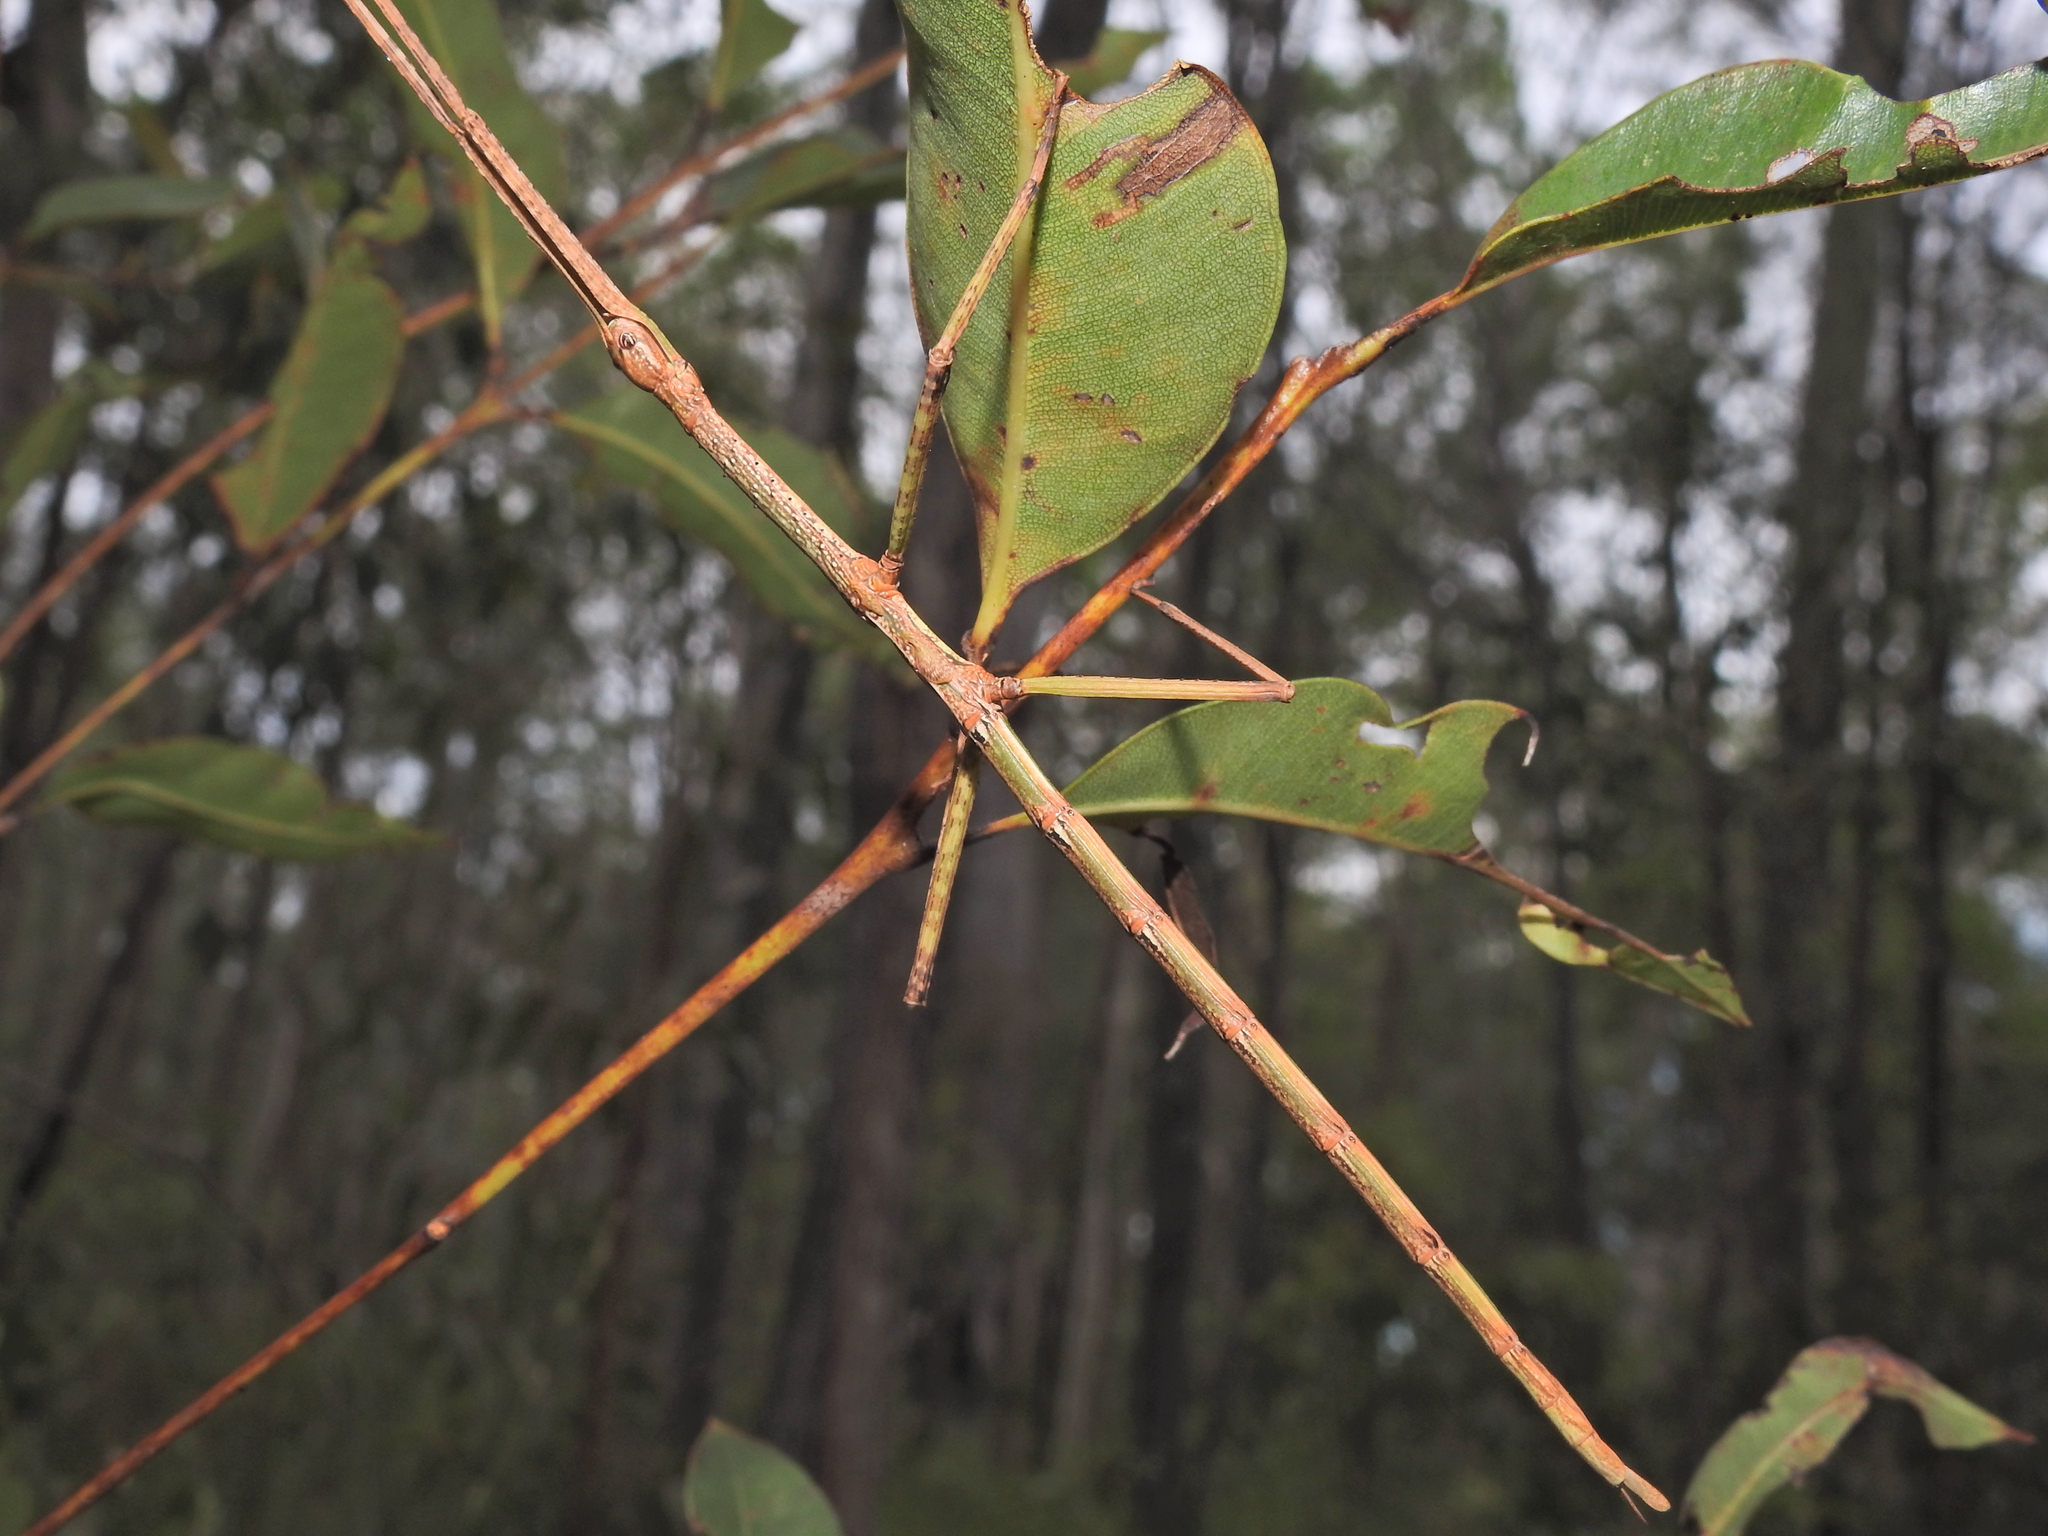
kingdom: Animalia
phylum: Arthropoda
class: Insecta
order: Phasmida
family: Phasmatidae
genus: Anchiale
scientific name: Anchiale austrotessulata
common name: Tessellated stick-insect
